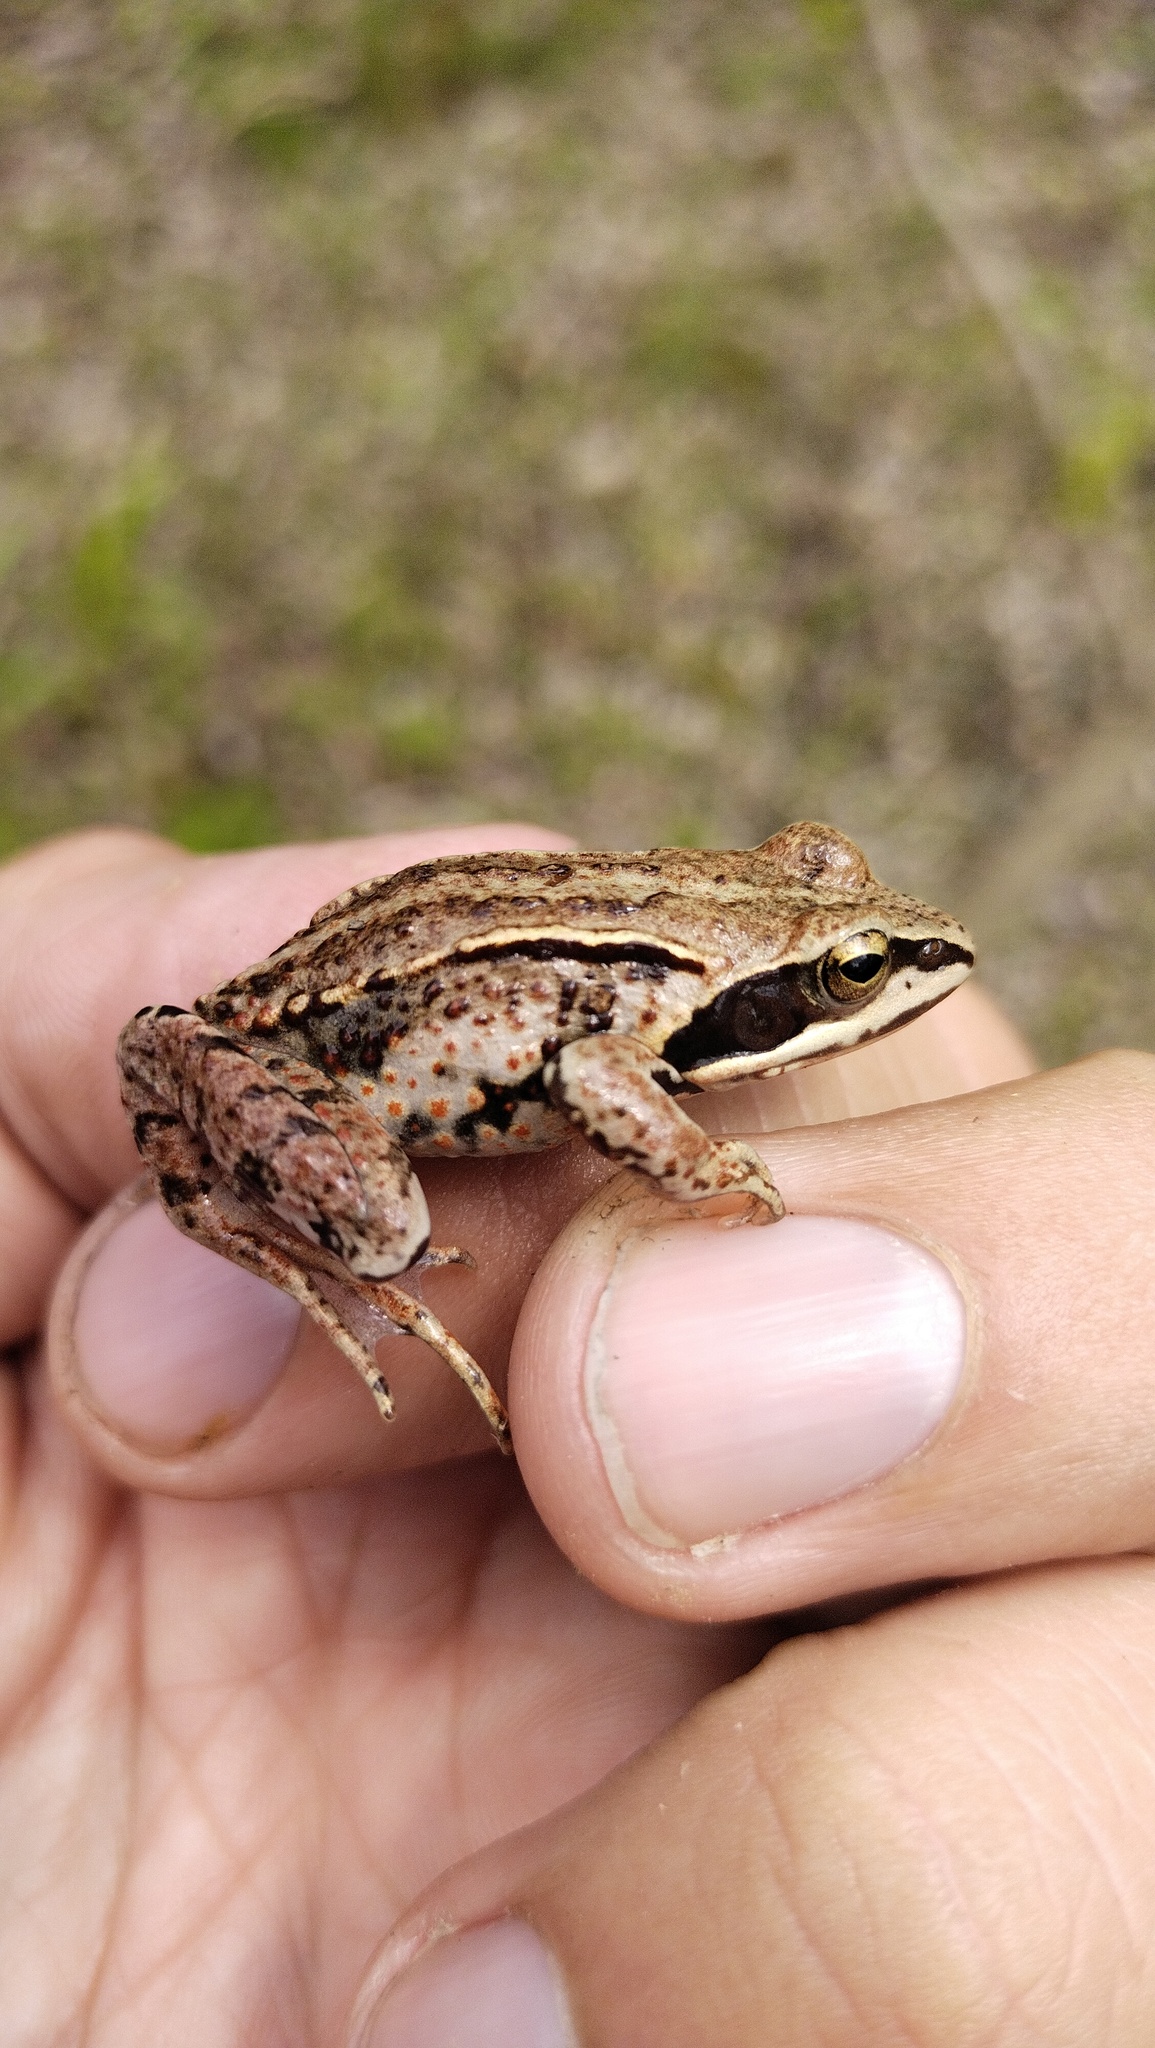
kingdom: Animalia
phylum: Chordata
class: Amphibia
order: Anura
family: Ranidae
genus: Rana
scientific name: Rana amurensis
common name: Amur brown frog
